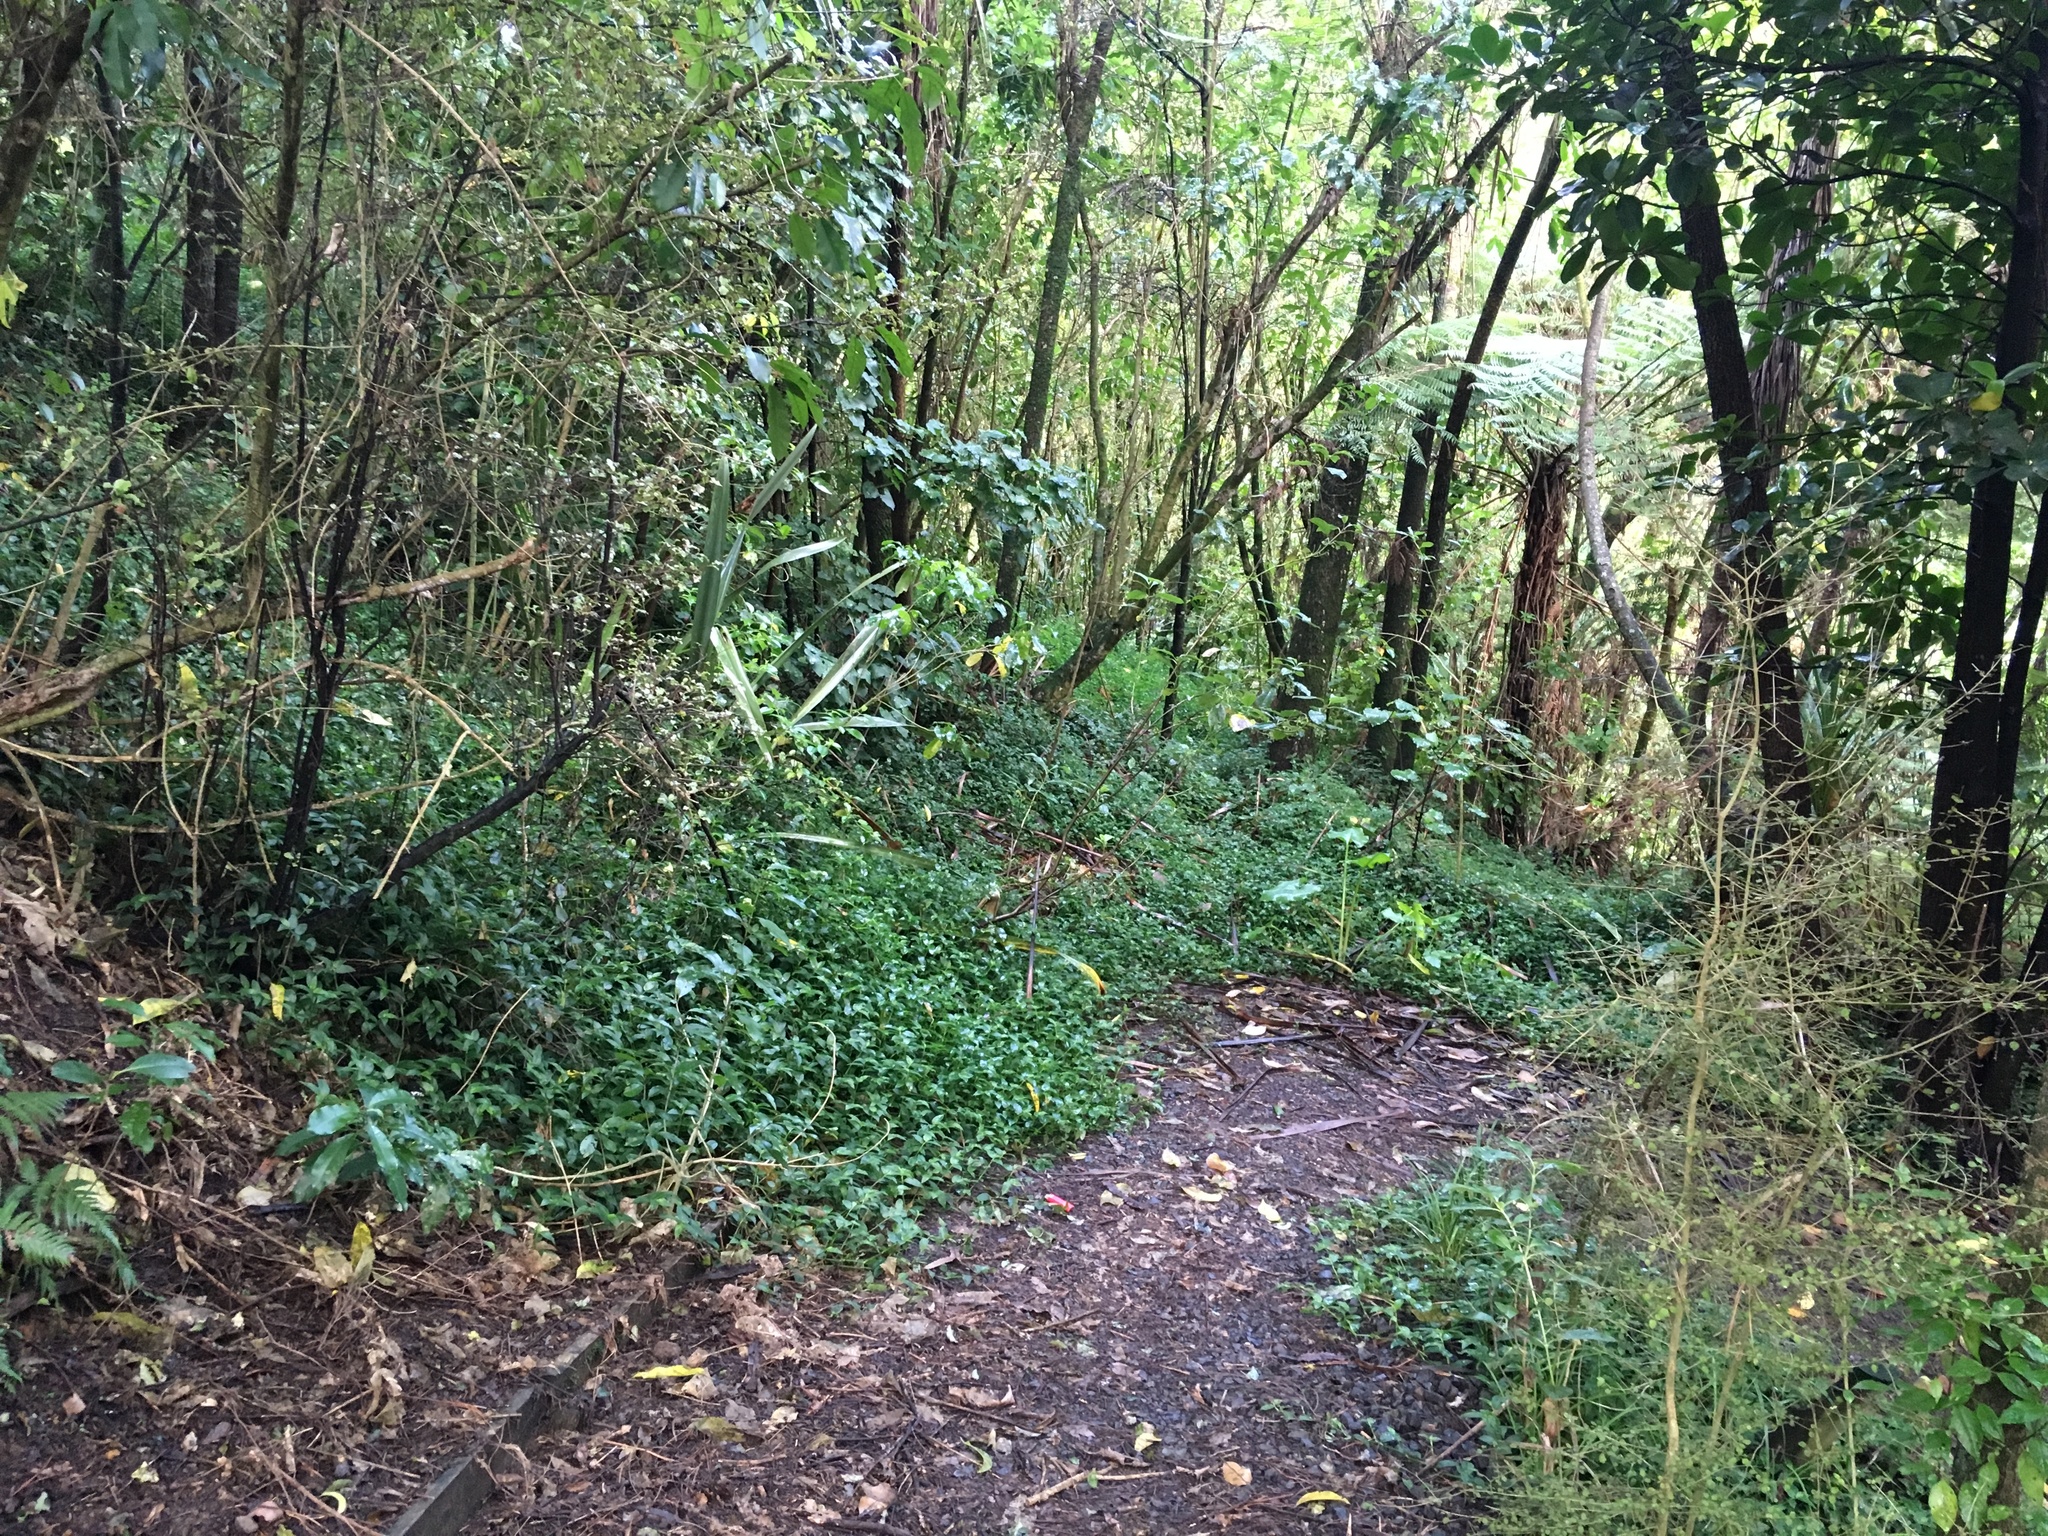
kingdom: Plantae
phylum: Tracheophyta
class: Liliopsida
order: Commelinales
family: Commelinaceae
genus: Tradescantia
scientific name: Tradescantia fluminensis
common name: Wandering-jew
